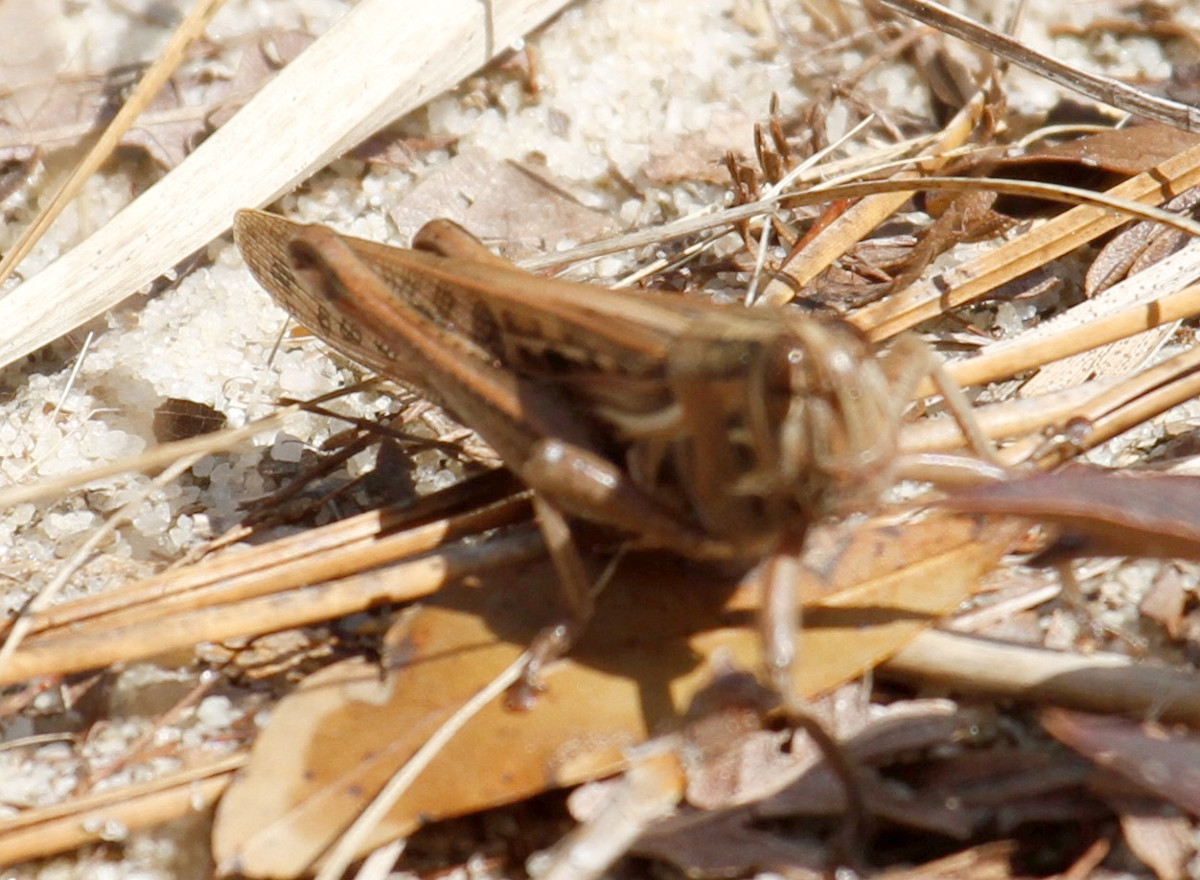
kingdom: Animalia
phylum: Arthropoda
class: Insecta
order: Orthoptera
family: Acrididae
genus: Schistocerca
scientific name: Schistocerca americana
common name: American bird locust
